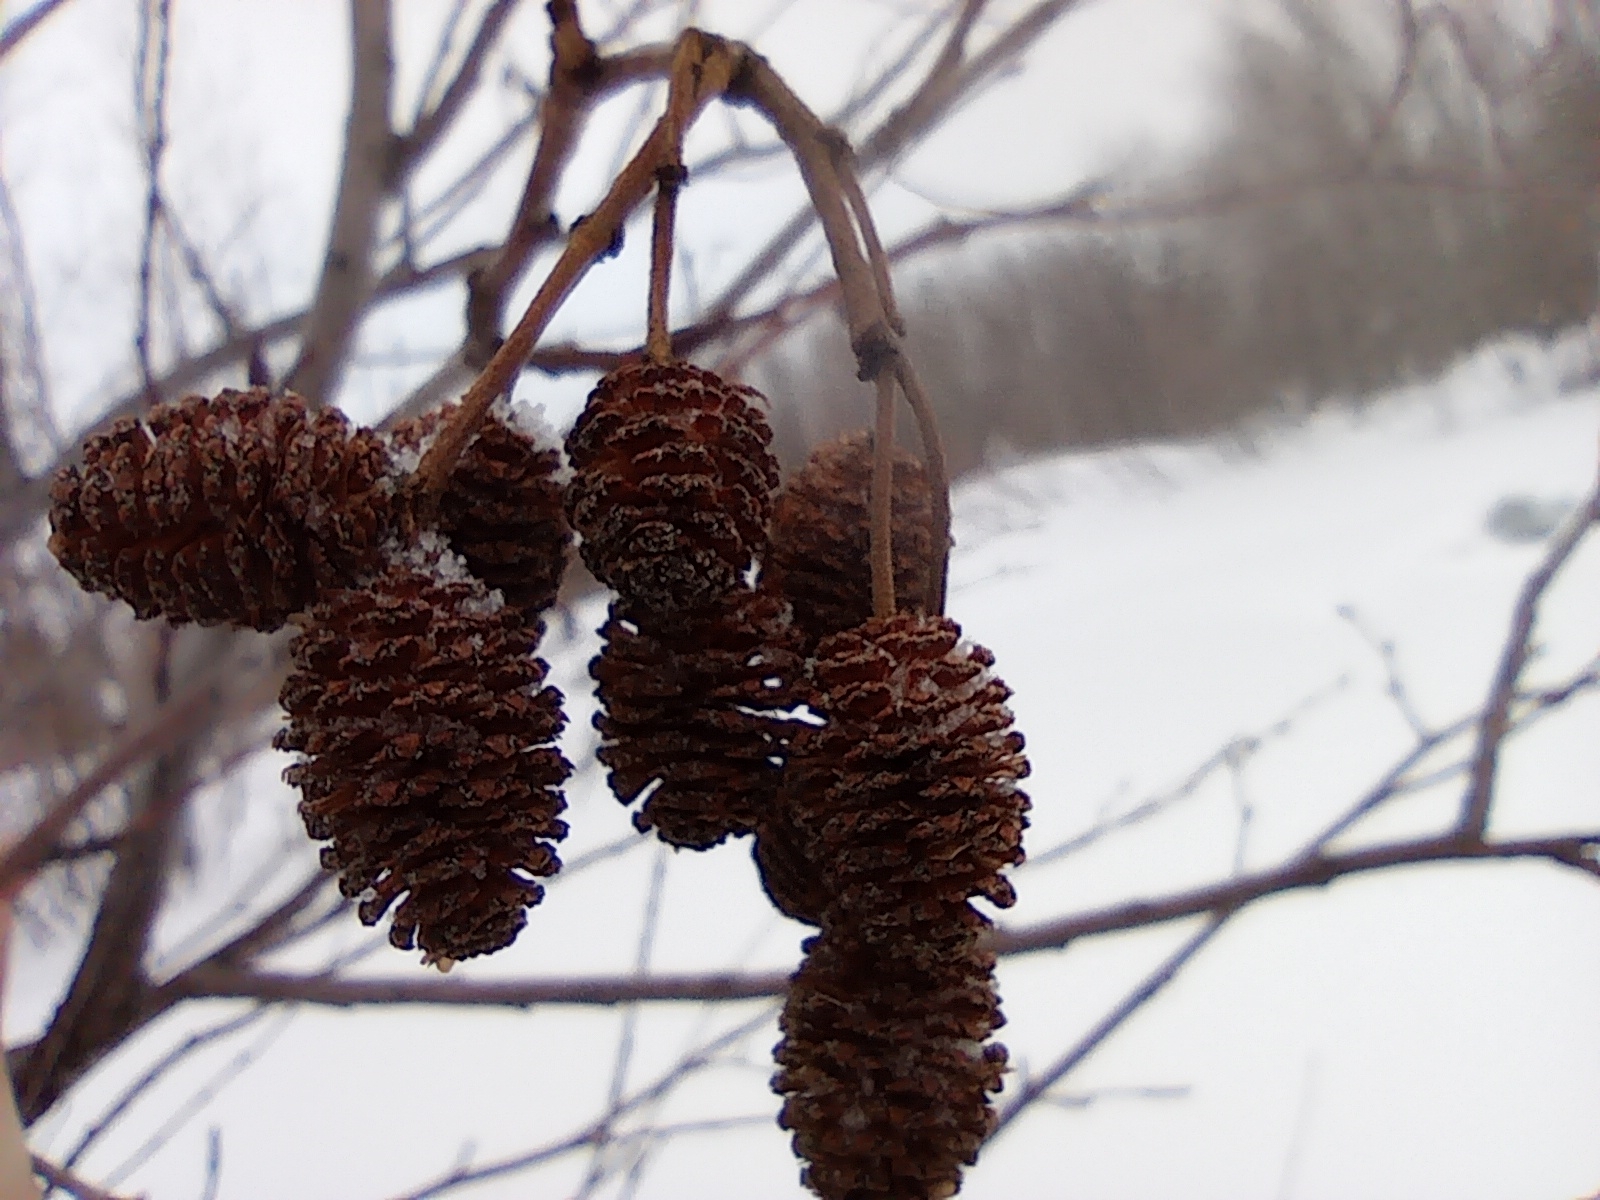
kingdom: Plantae
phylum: Tracheophyta
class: Magnoliopsida
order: Fagales
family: Betulaceae
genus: Alnus
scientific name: Alnus incana
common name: Grey alder
